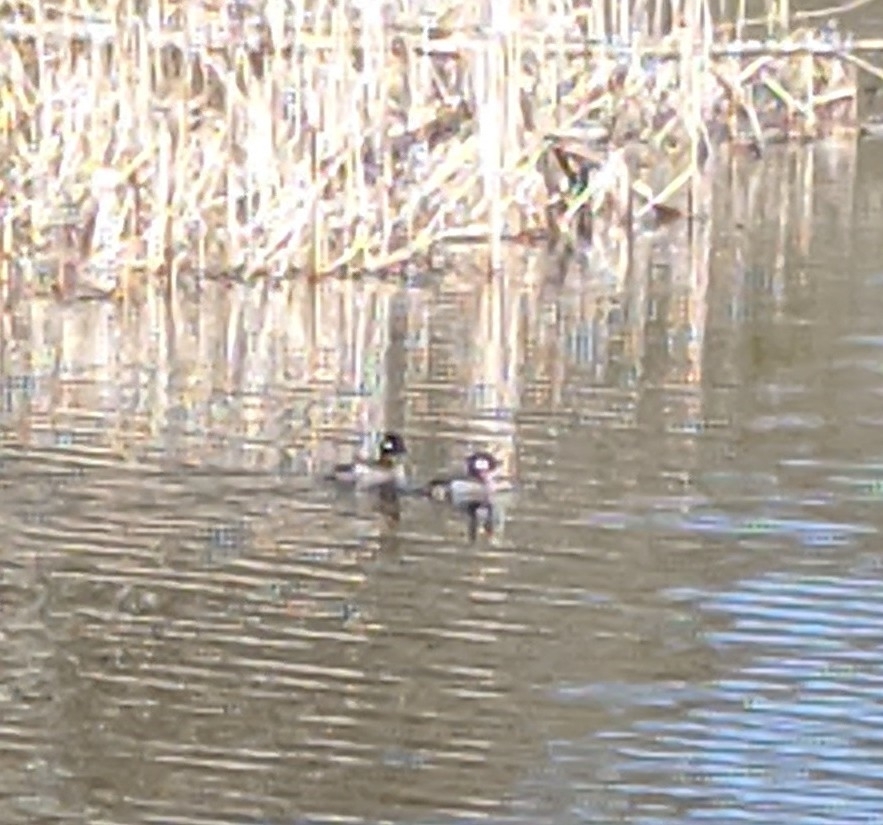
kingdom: Animalia
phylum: Chordata
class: Aves
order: Anseriformes
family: Anatidae
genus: Bucephala
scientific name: Bucephala albeola
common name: Bufflehead
